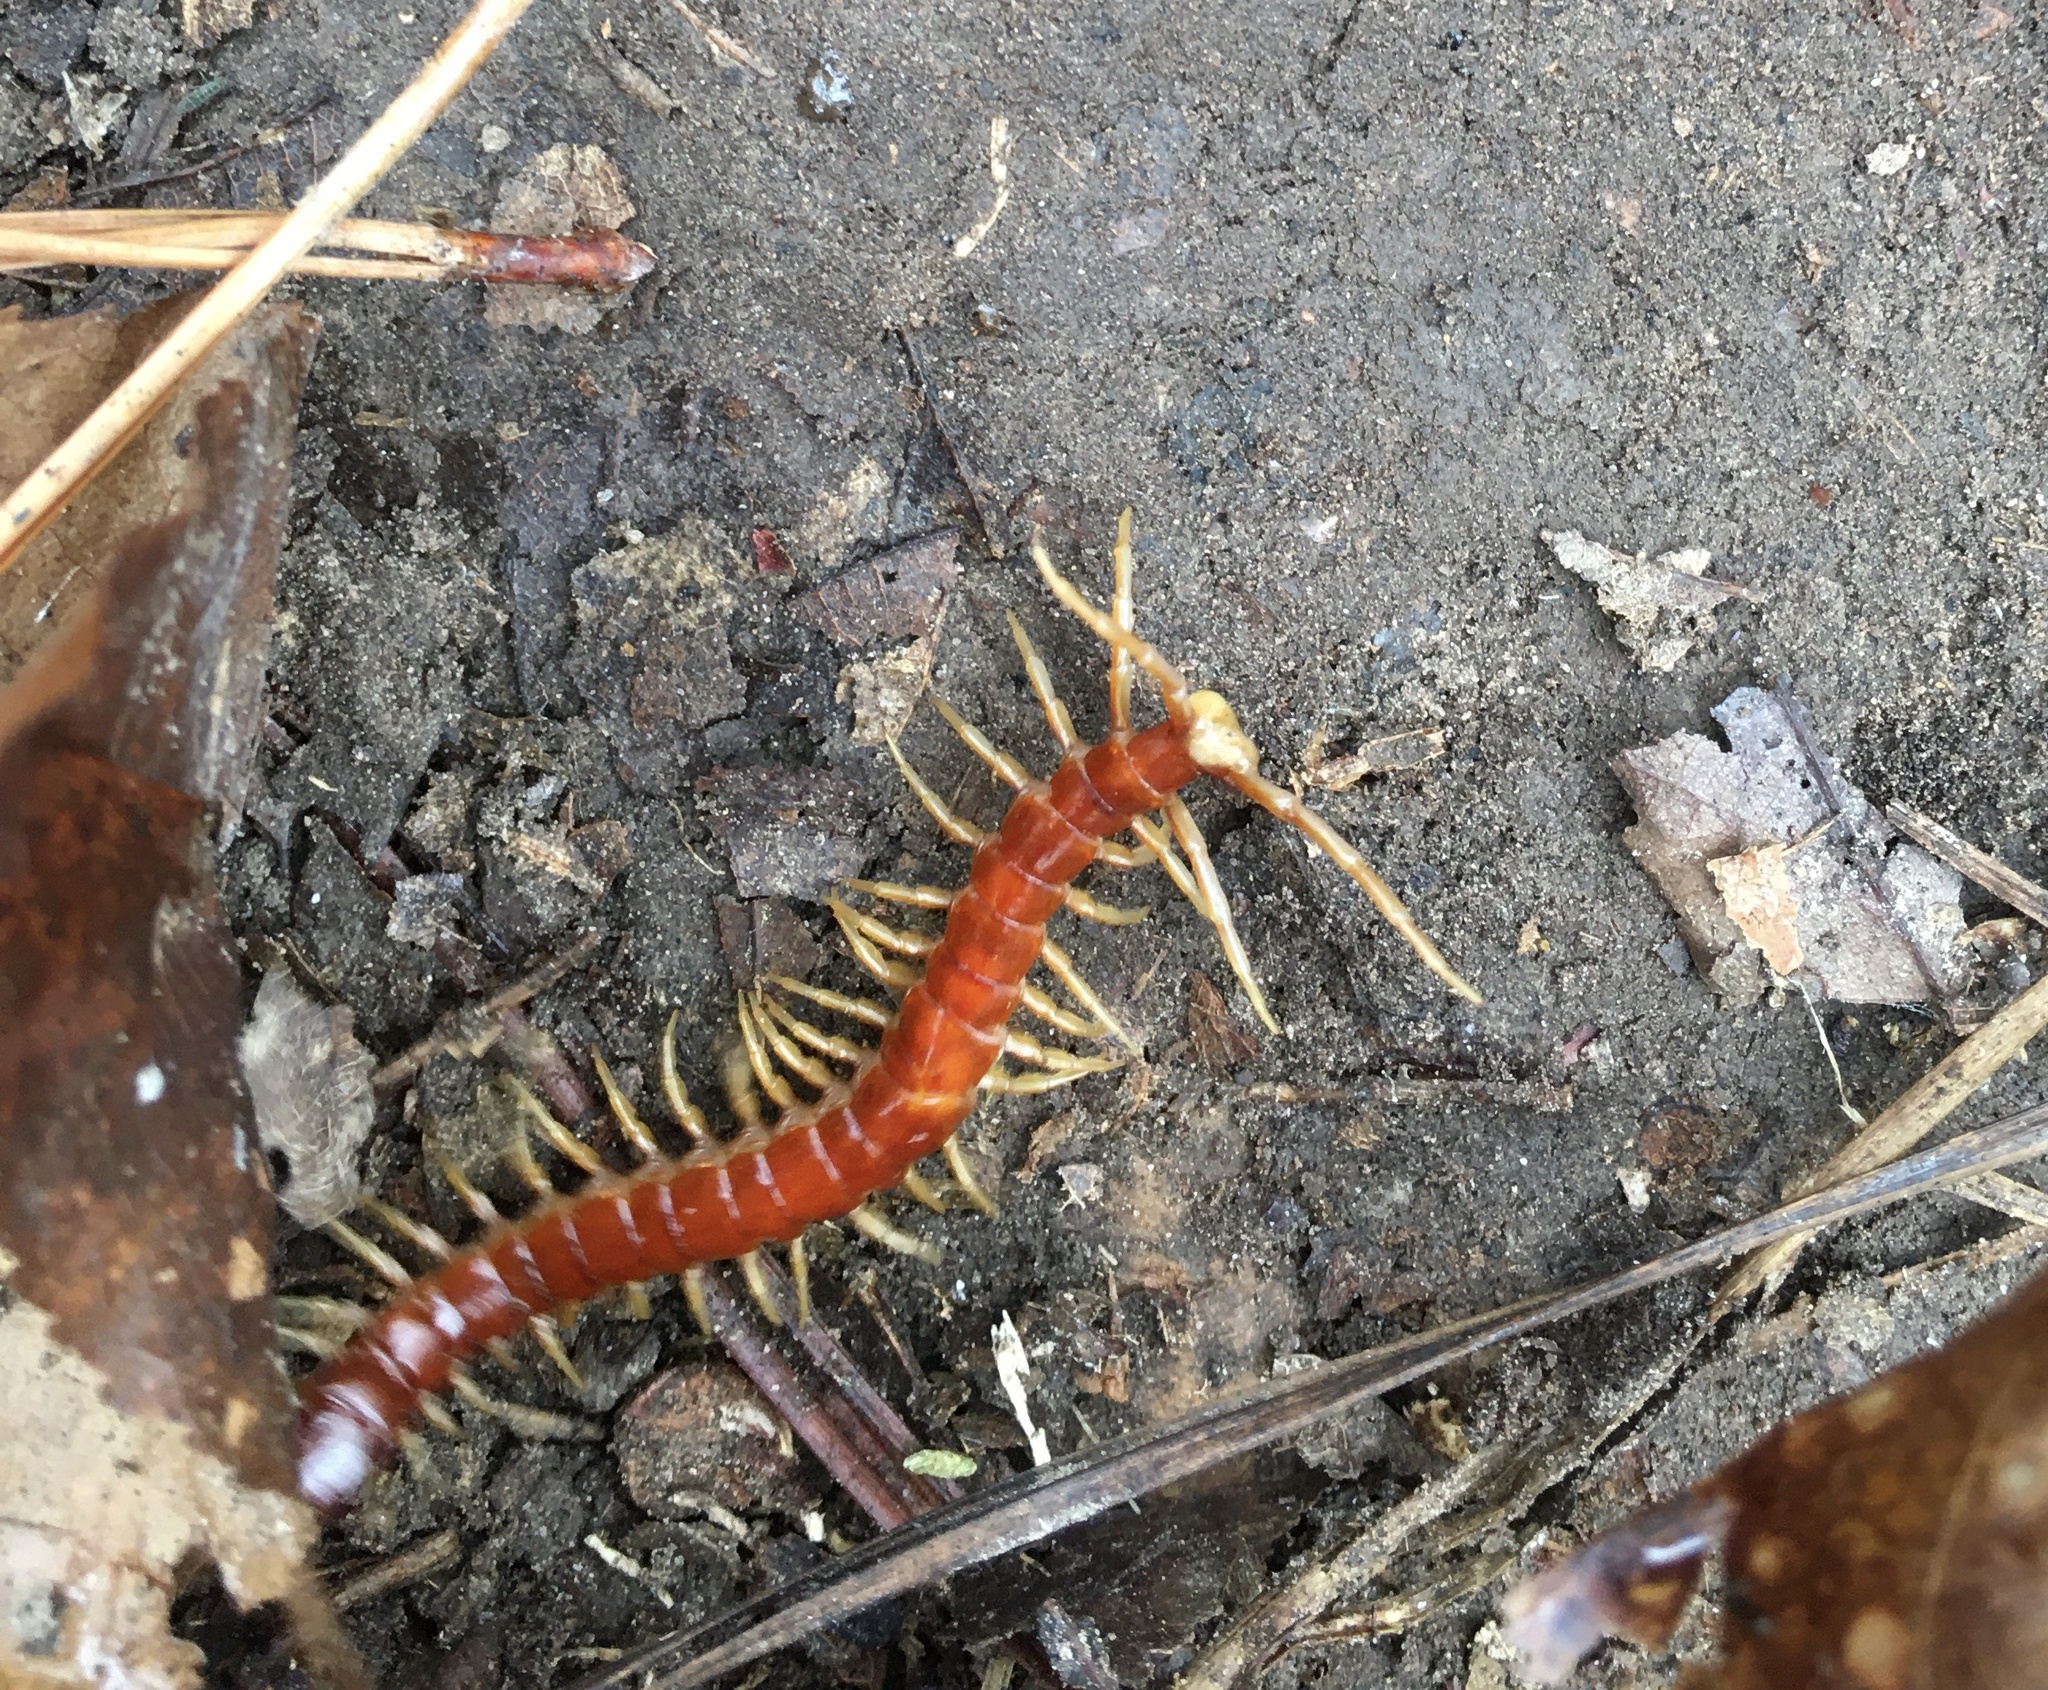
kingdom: Animalia
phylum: Arthropoda
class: Chilopoda
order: Scolopendromorpha
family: Scolopocryptopidae
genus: Scolopocryptops
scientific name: Scolopocryptops sexspinosus
